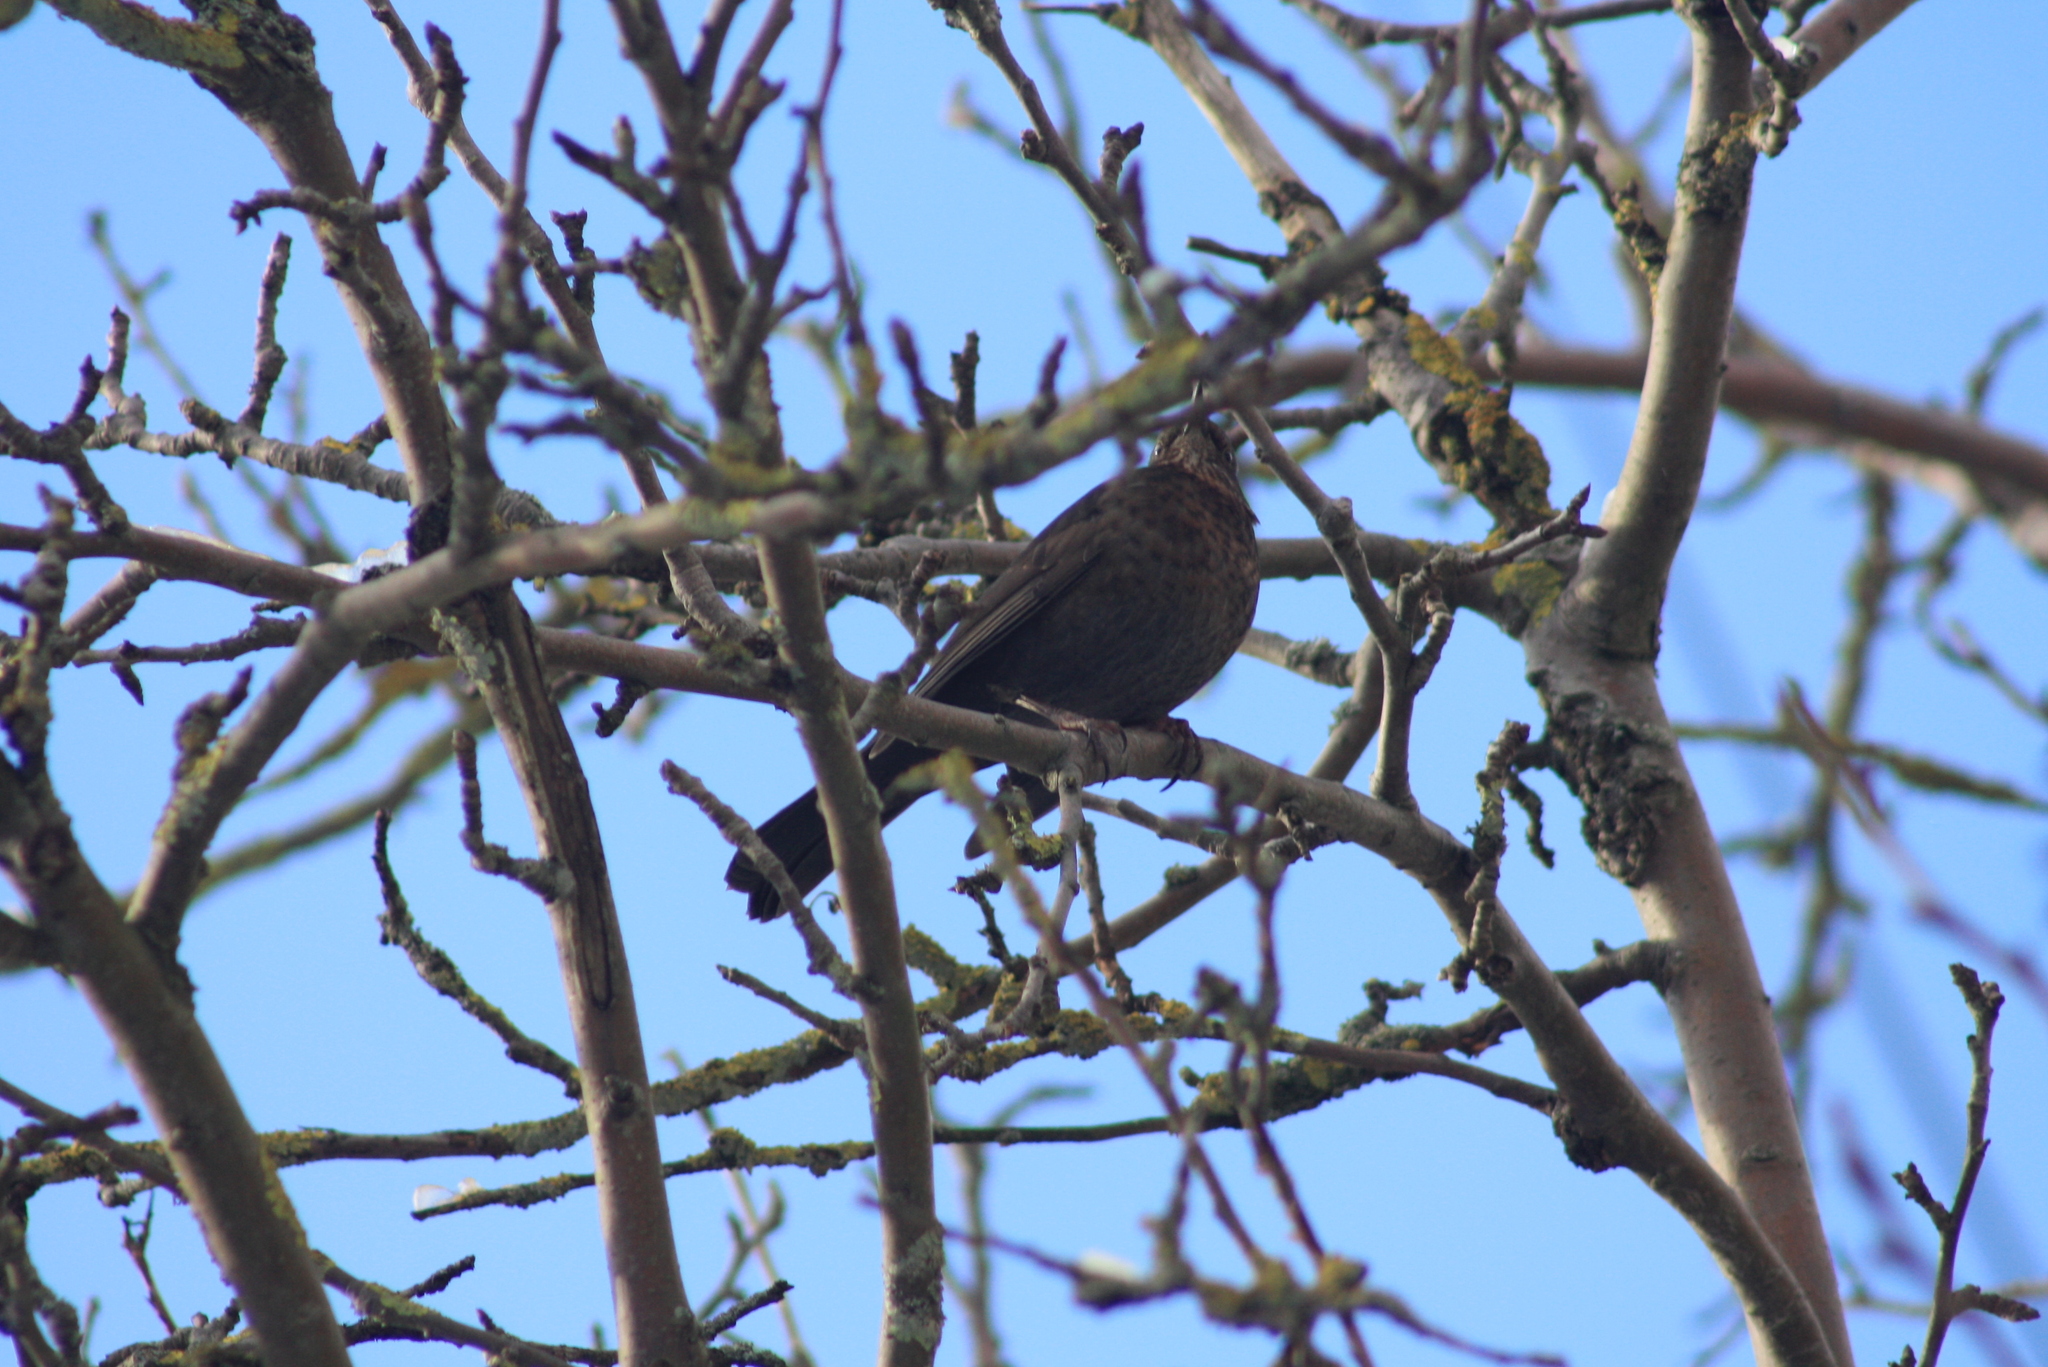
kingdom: Animalia
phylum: Chordata
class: Aves
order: Passeriformes
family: Turdidae
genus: Turdus
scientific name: Turdus merula
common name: Common blackbird
